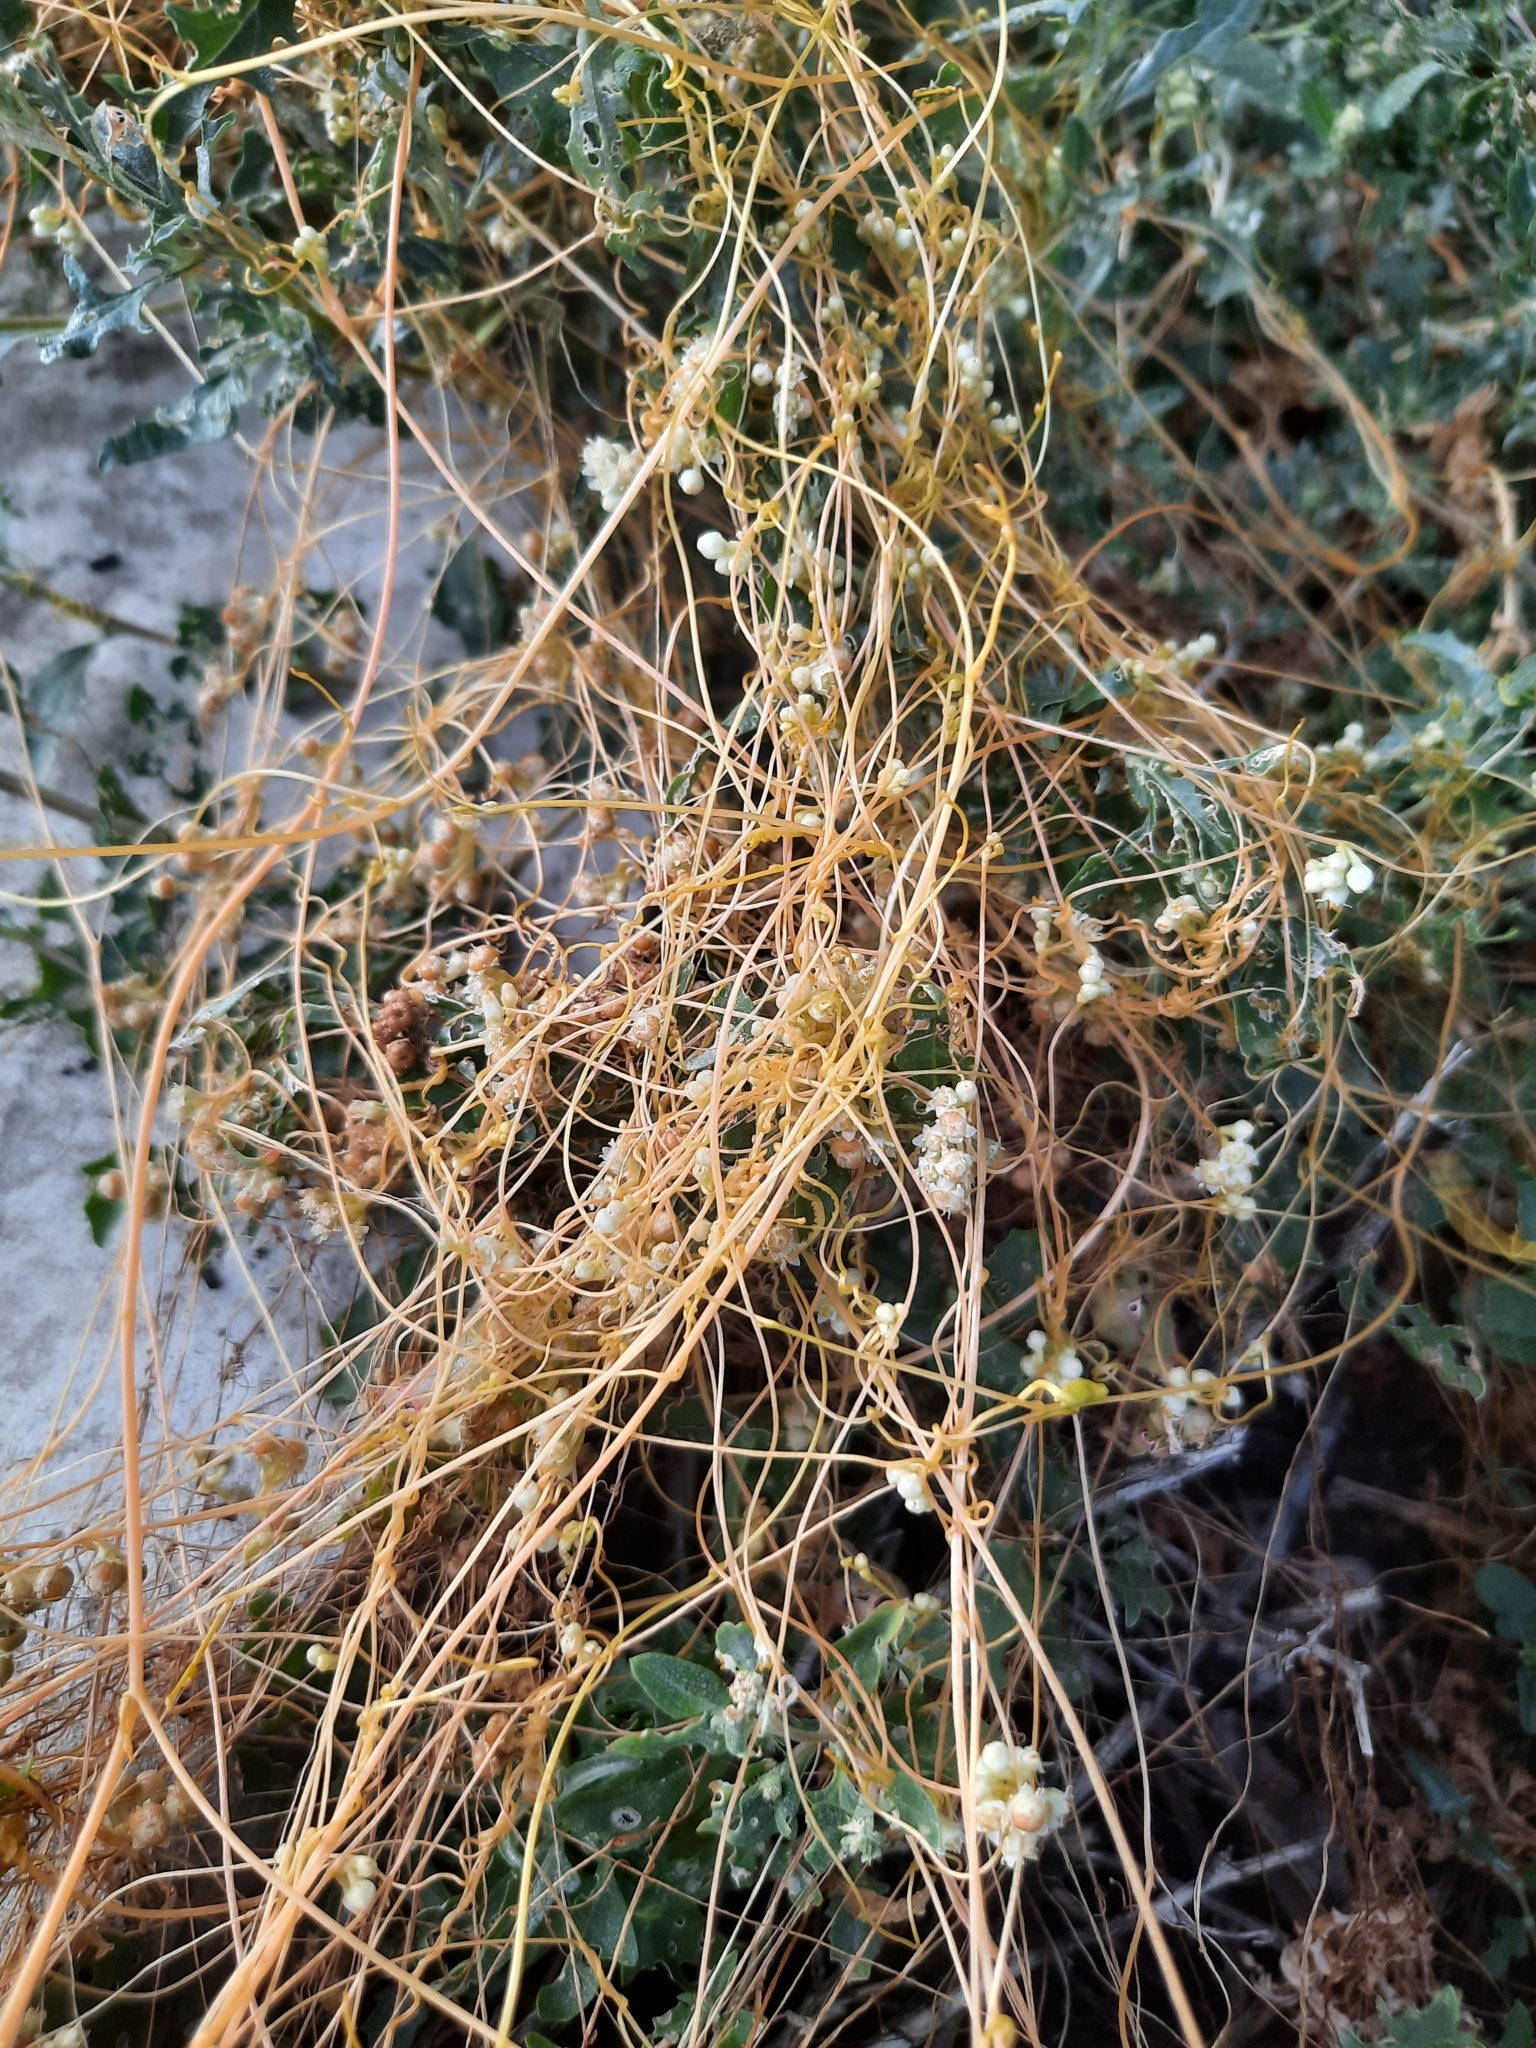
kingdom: Plantae
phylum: Tracheophyta
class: Magnoliopsida
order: Solanales
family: Convolvulaceae
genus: Cuscuta
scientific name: Cuscuta campestris
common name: Yellow dodder
